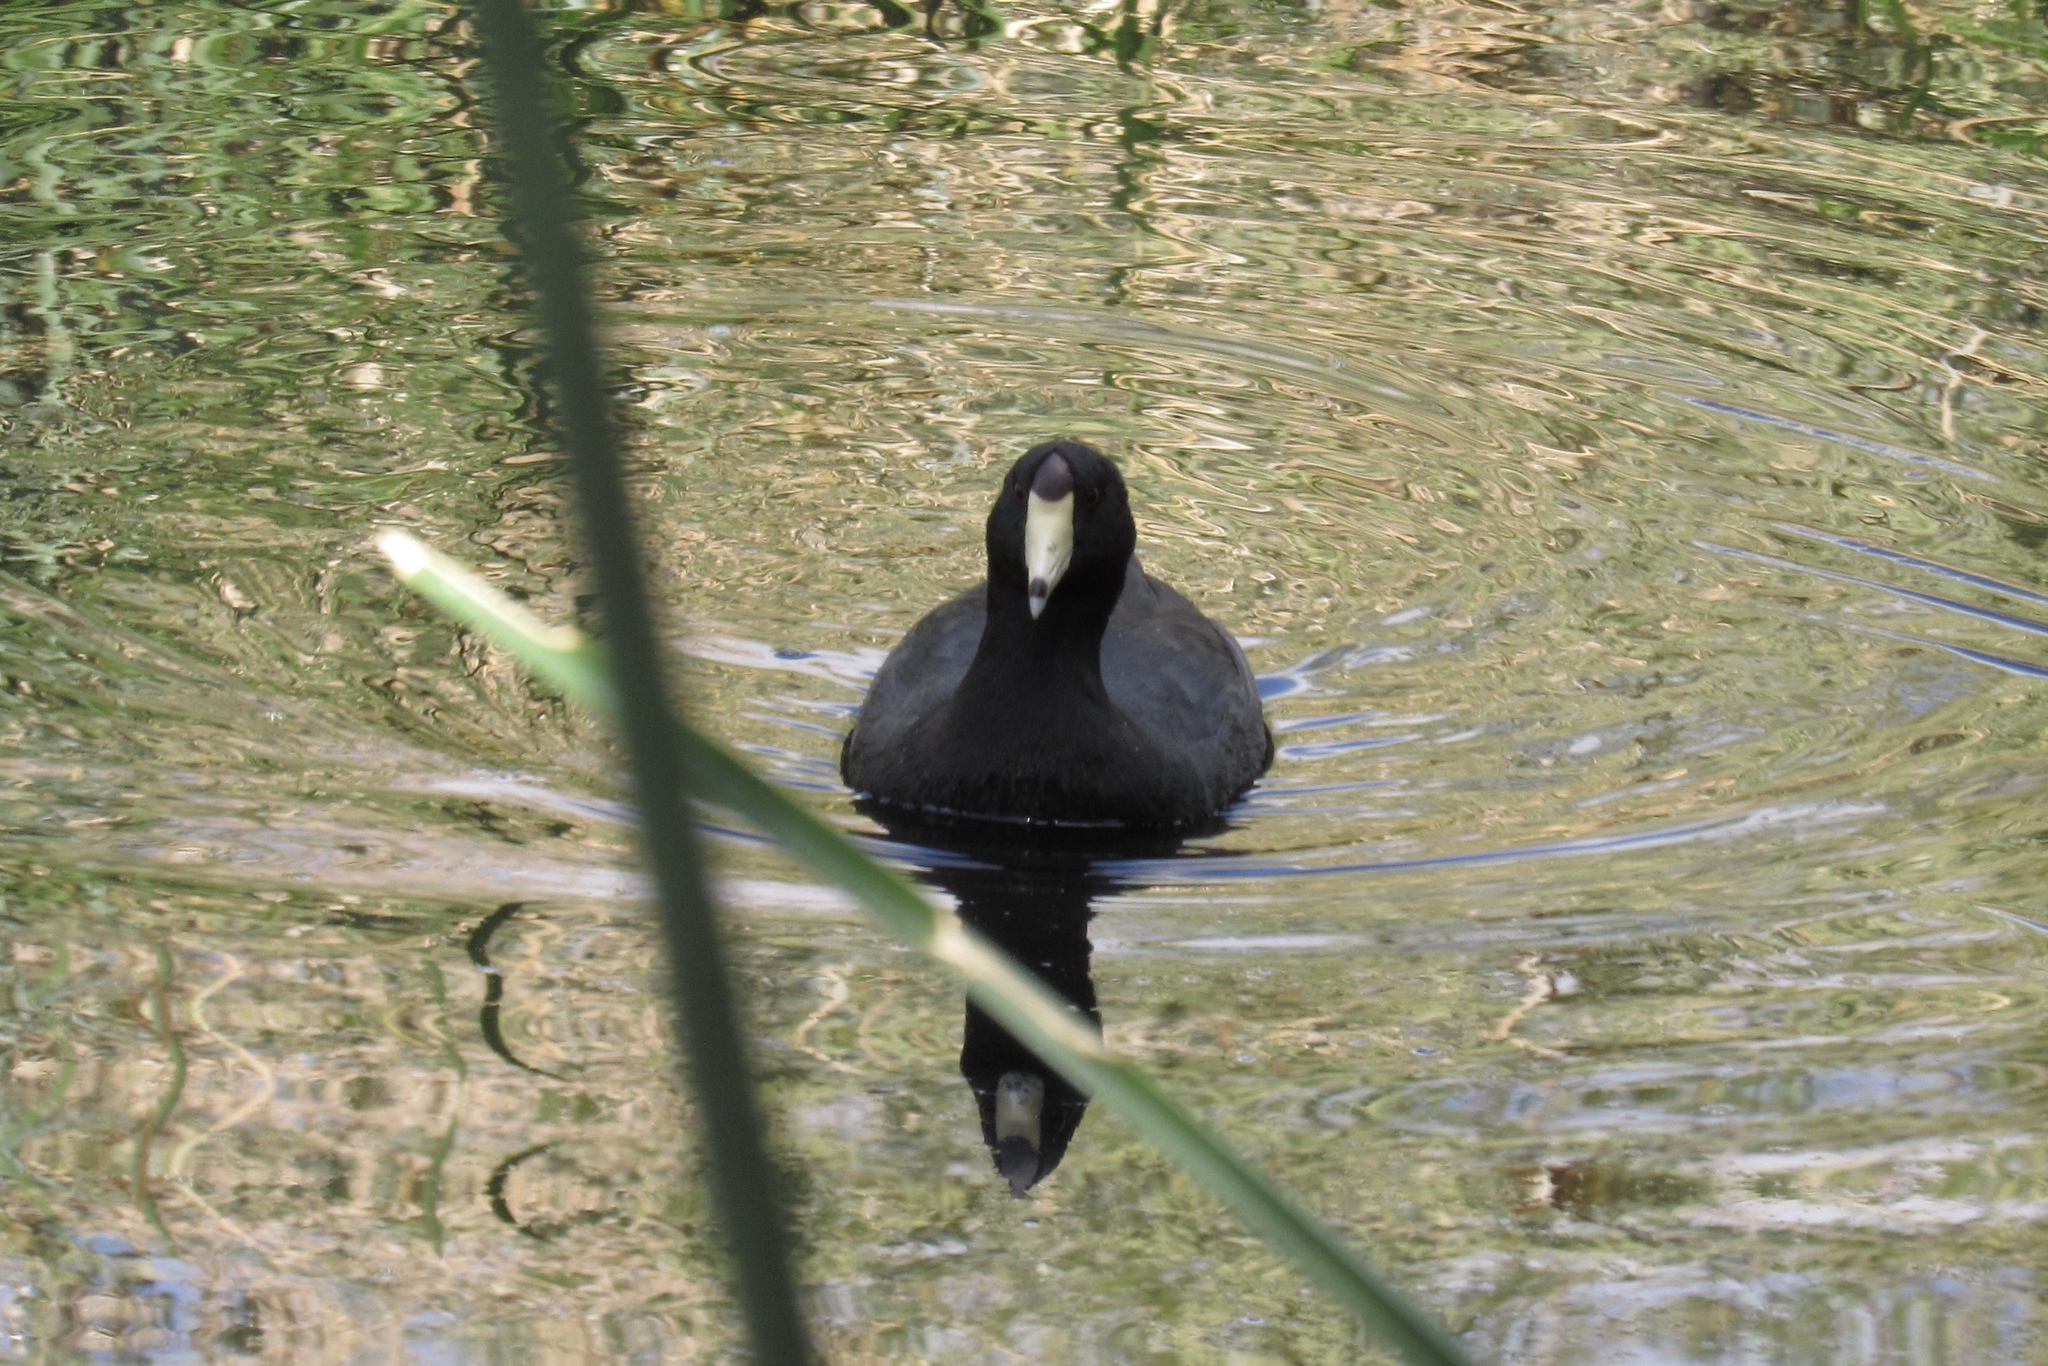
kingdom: Animalia
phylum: Chordata
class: Aves
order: Gruiformes
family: Rallidae
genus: Fulica
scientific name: Fulica americana
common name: American coot
